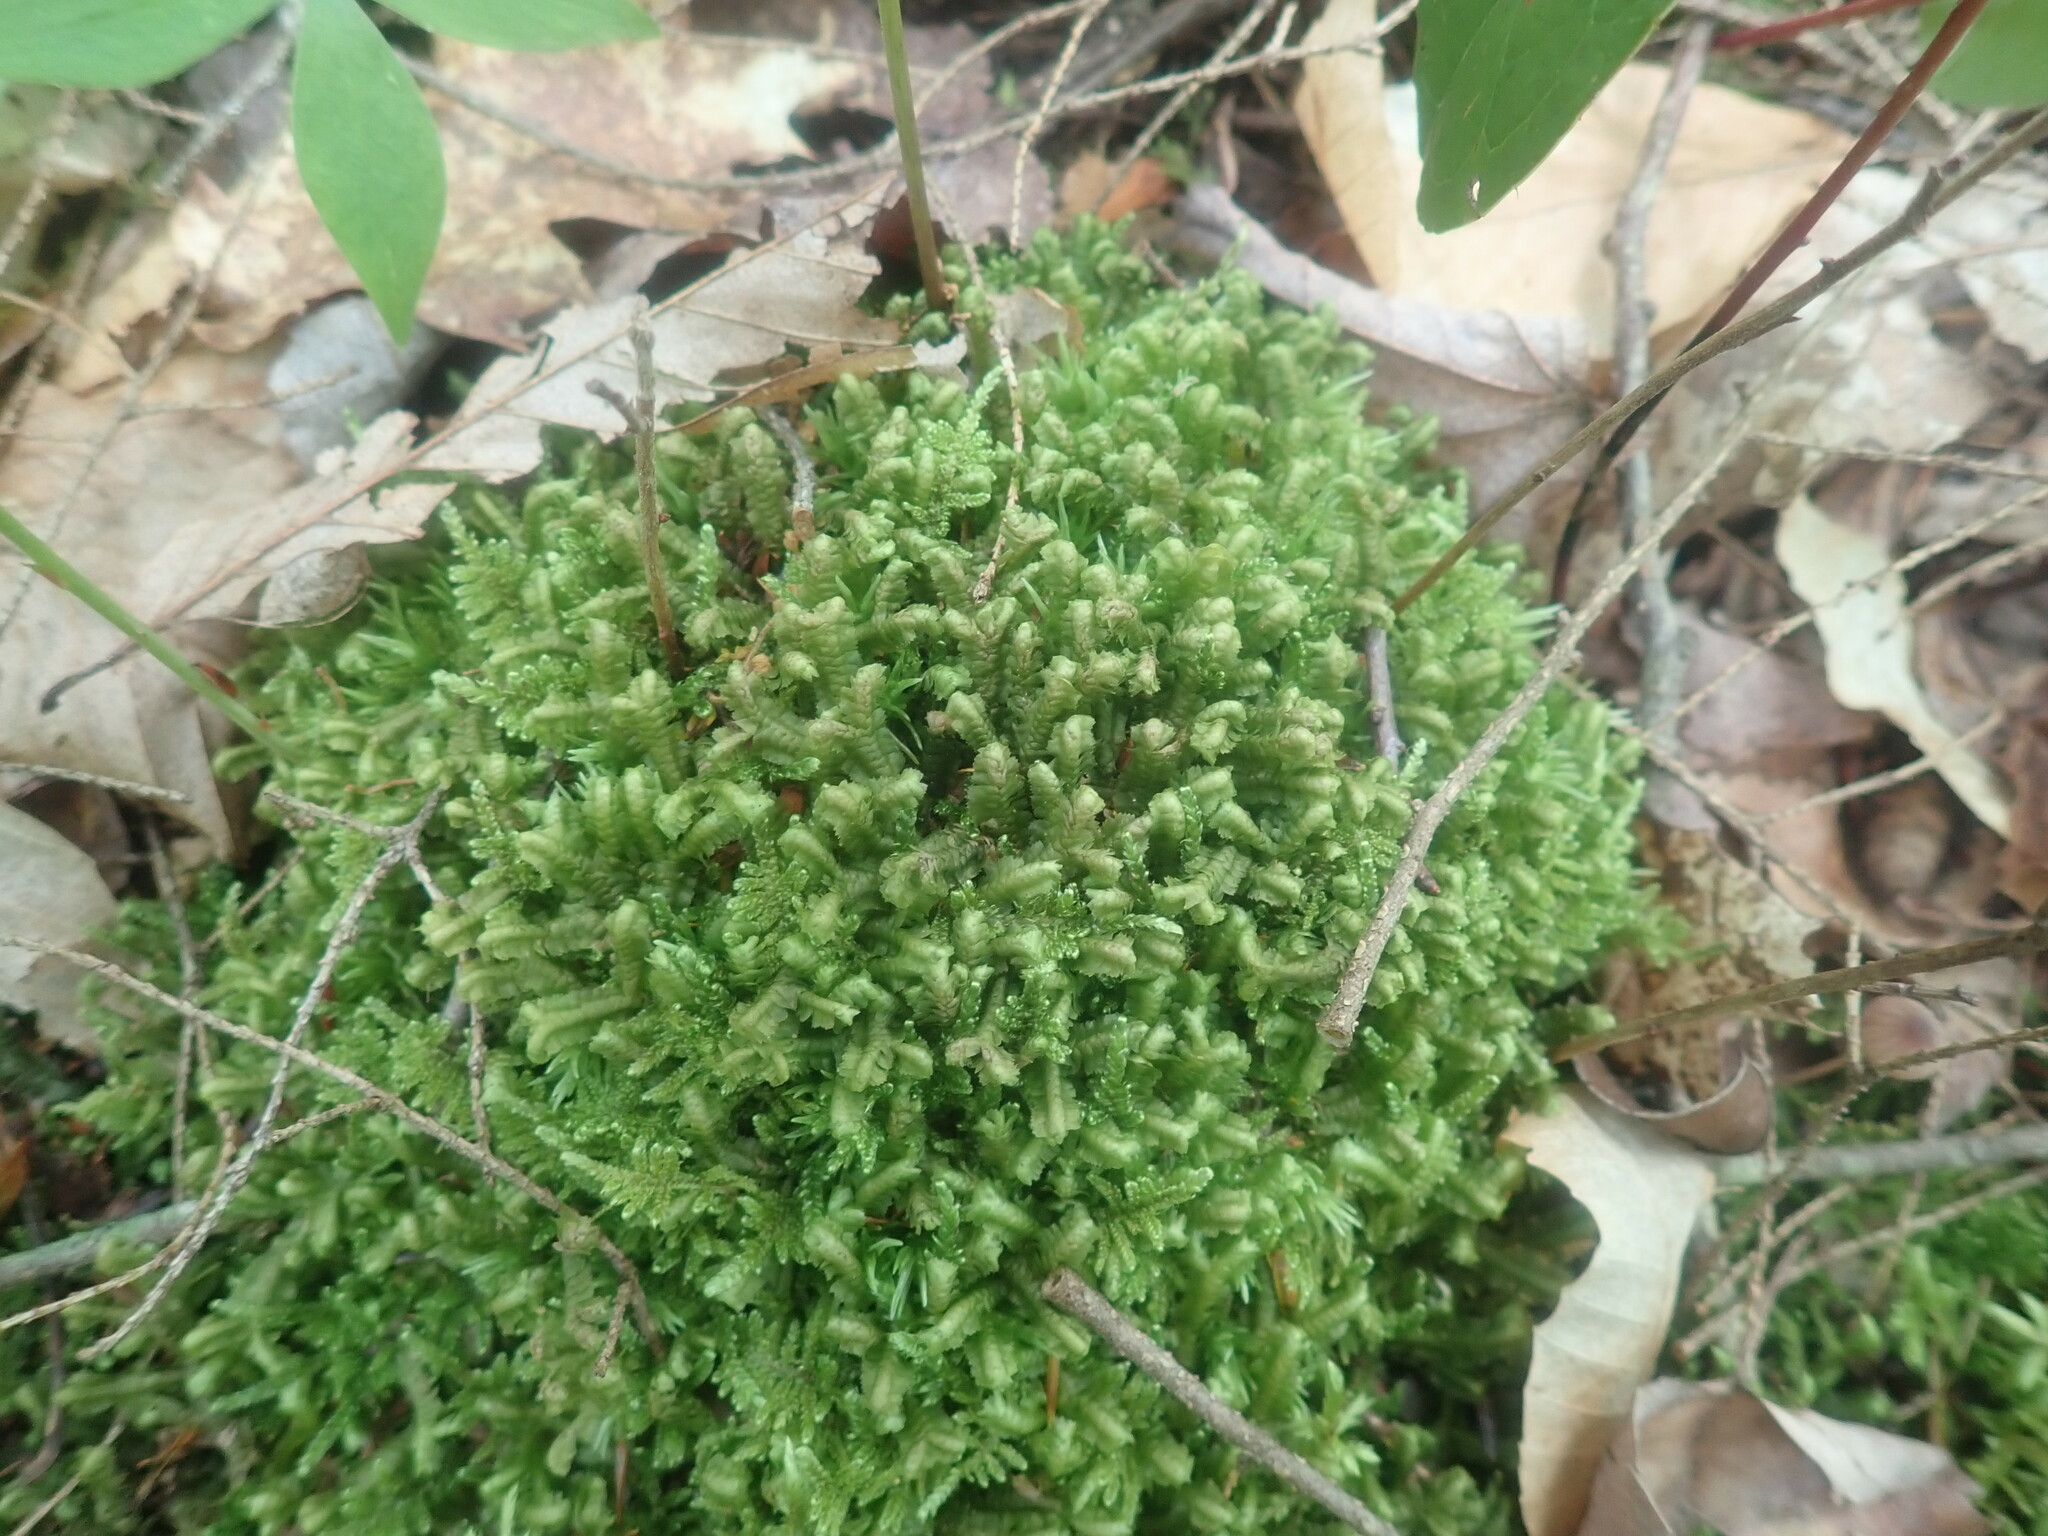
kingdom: Plantae
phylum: Marchantiophyta
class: Jungermanniopsida
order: Jungermanniales
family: Lepidoziaceae
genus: Bazzania
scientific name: Bazzania trilobata
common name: Three-lobed whipwort
